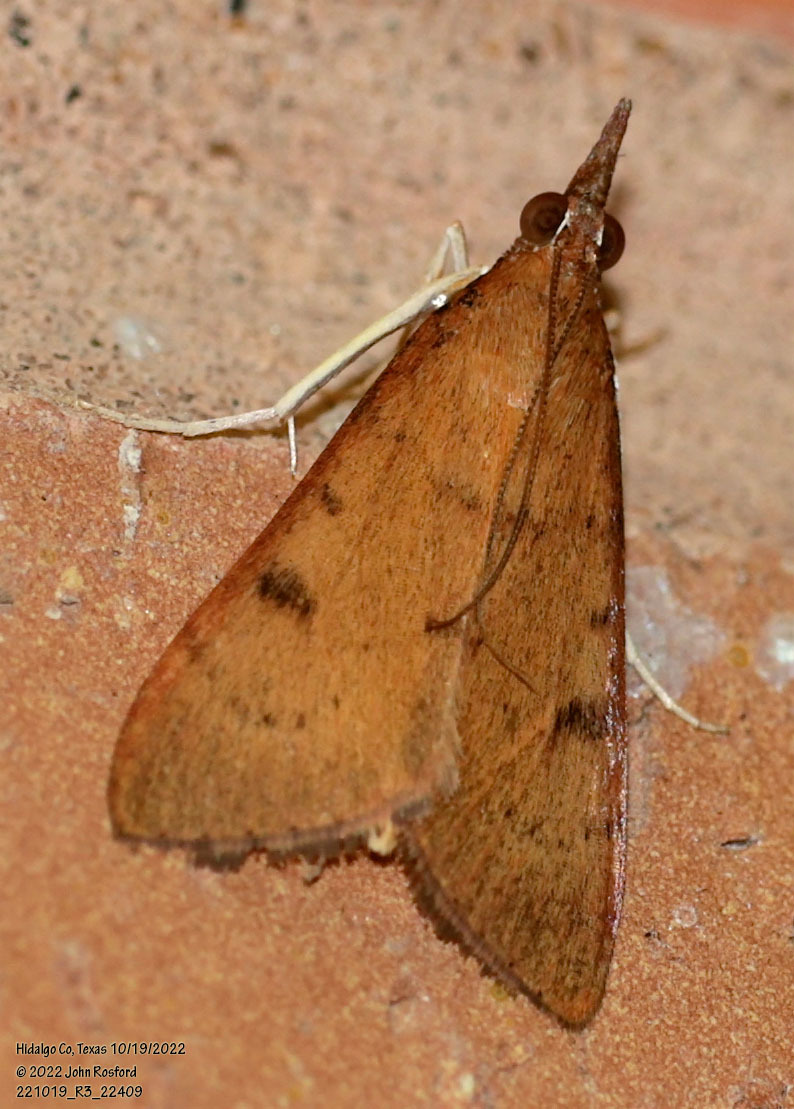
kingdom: Animalia
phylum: Arthropoda
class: Insecta
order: Lepidoptera
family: Crambidae
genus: Uresiphita
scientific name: Uresiphita reversalis
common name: Genista broom moth
